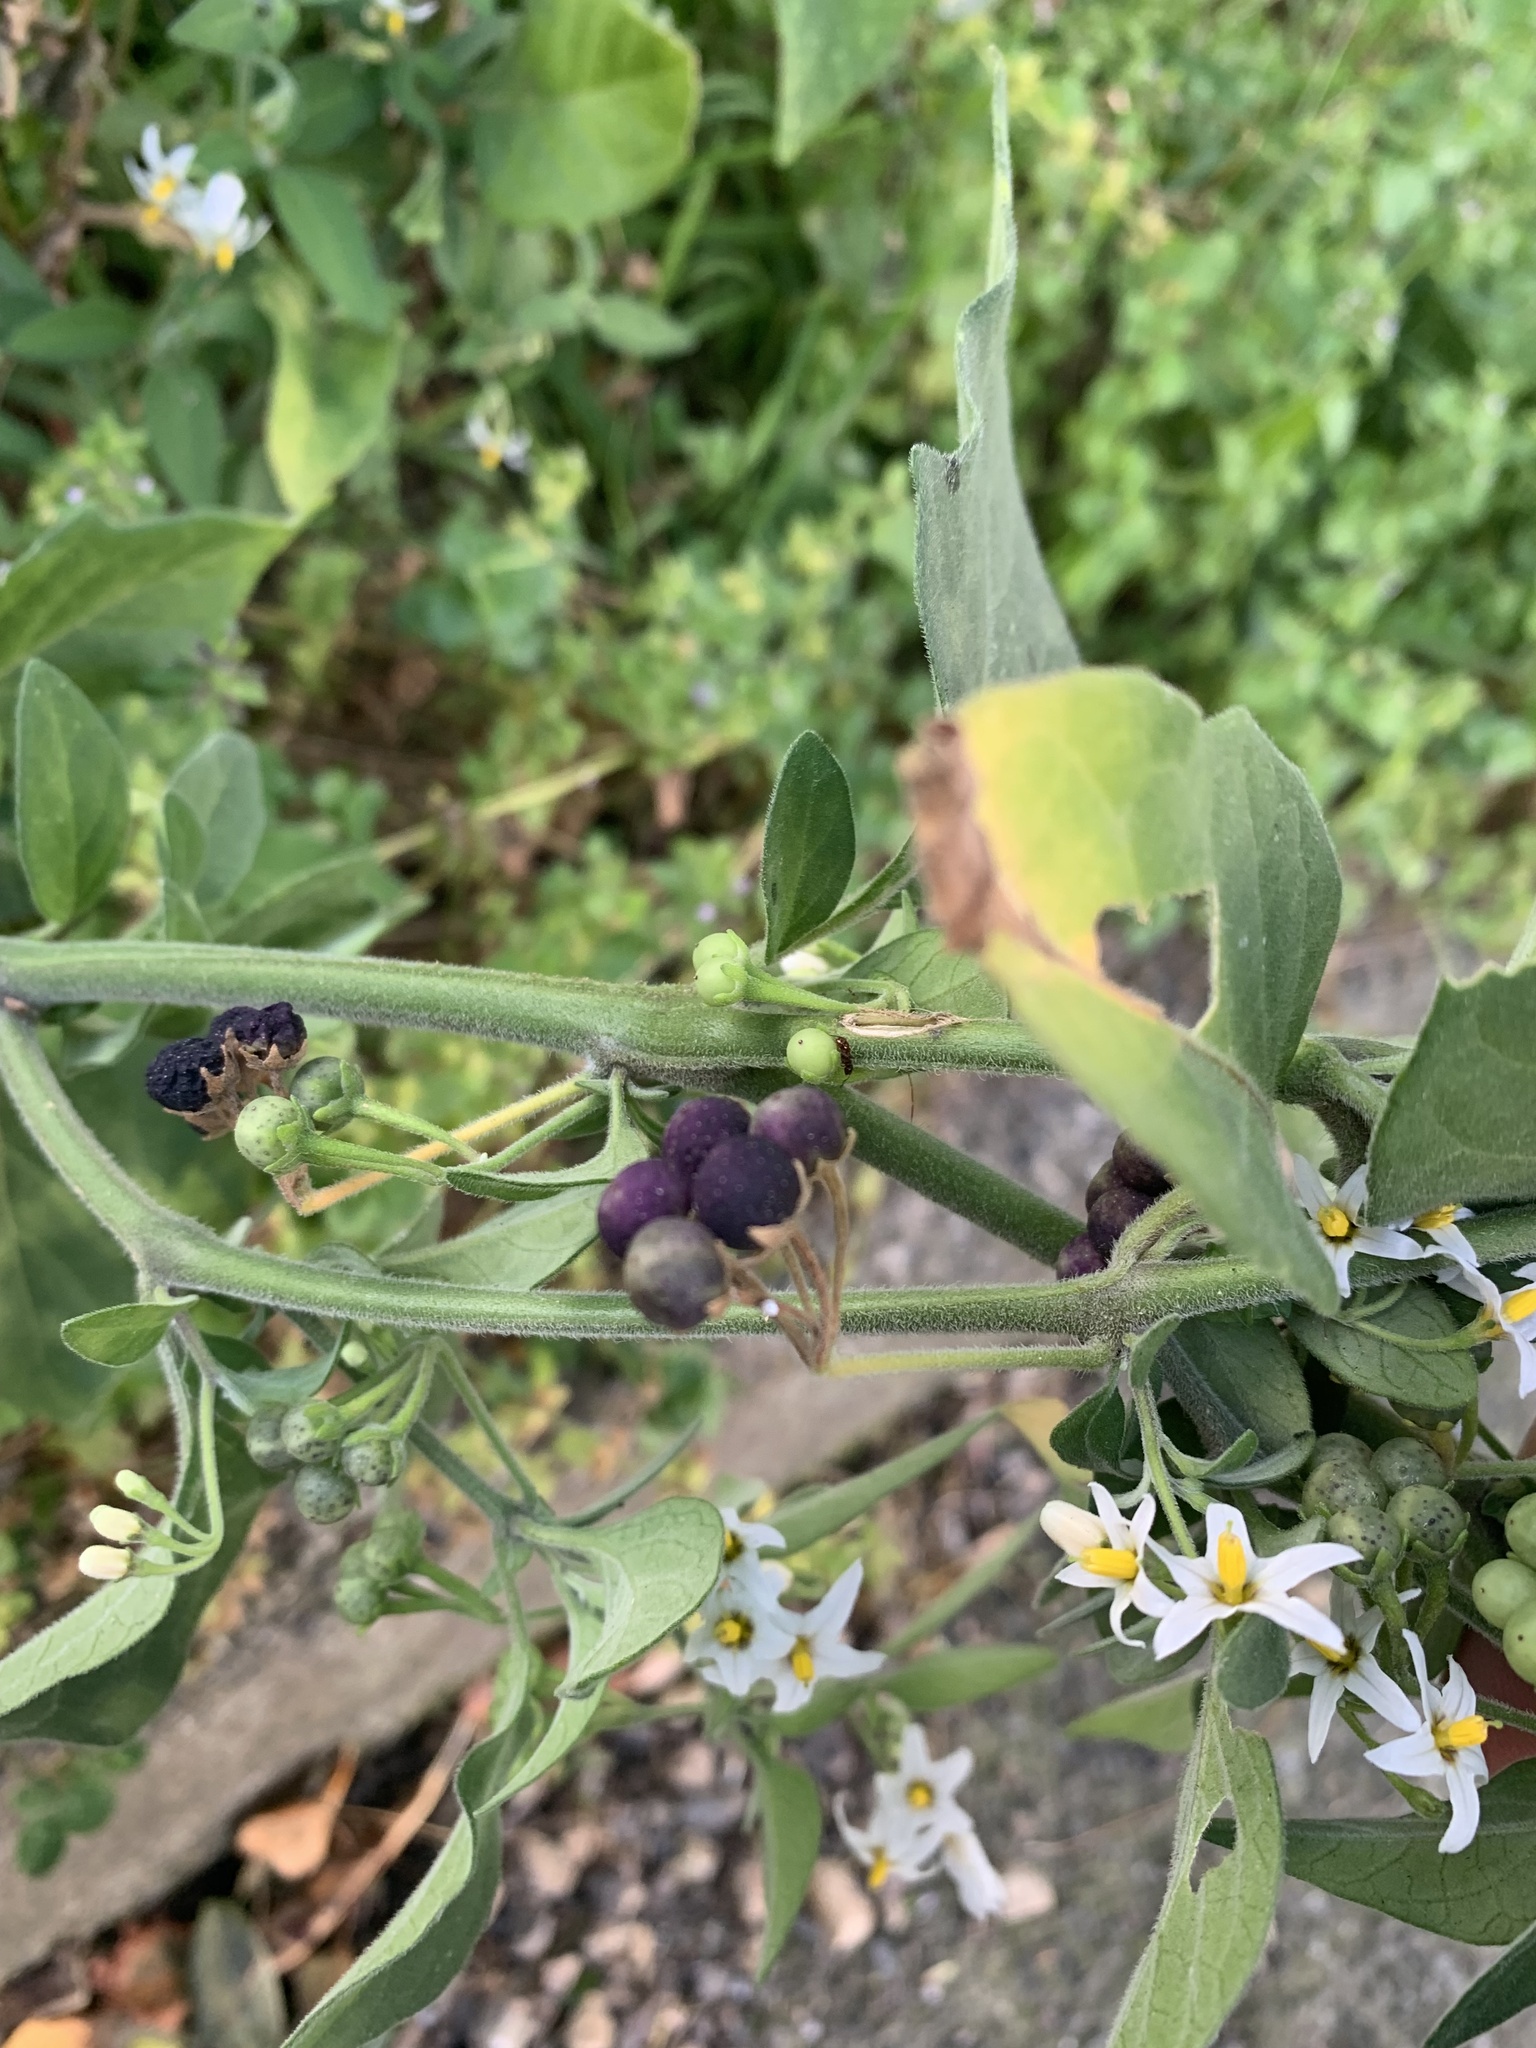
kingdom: Plantae
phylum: Tracheophyta
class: Magnoliopsida
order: Solanales
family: Solanaceae
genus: Solanum
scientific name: Solanum chenopodioides
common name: Tall nightshade
